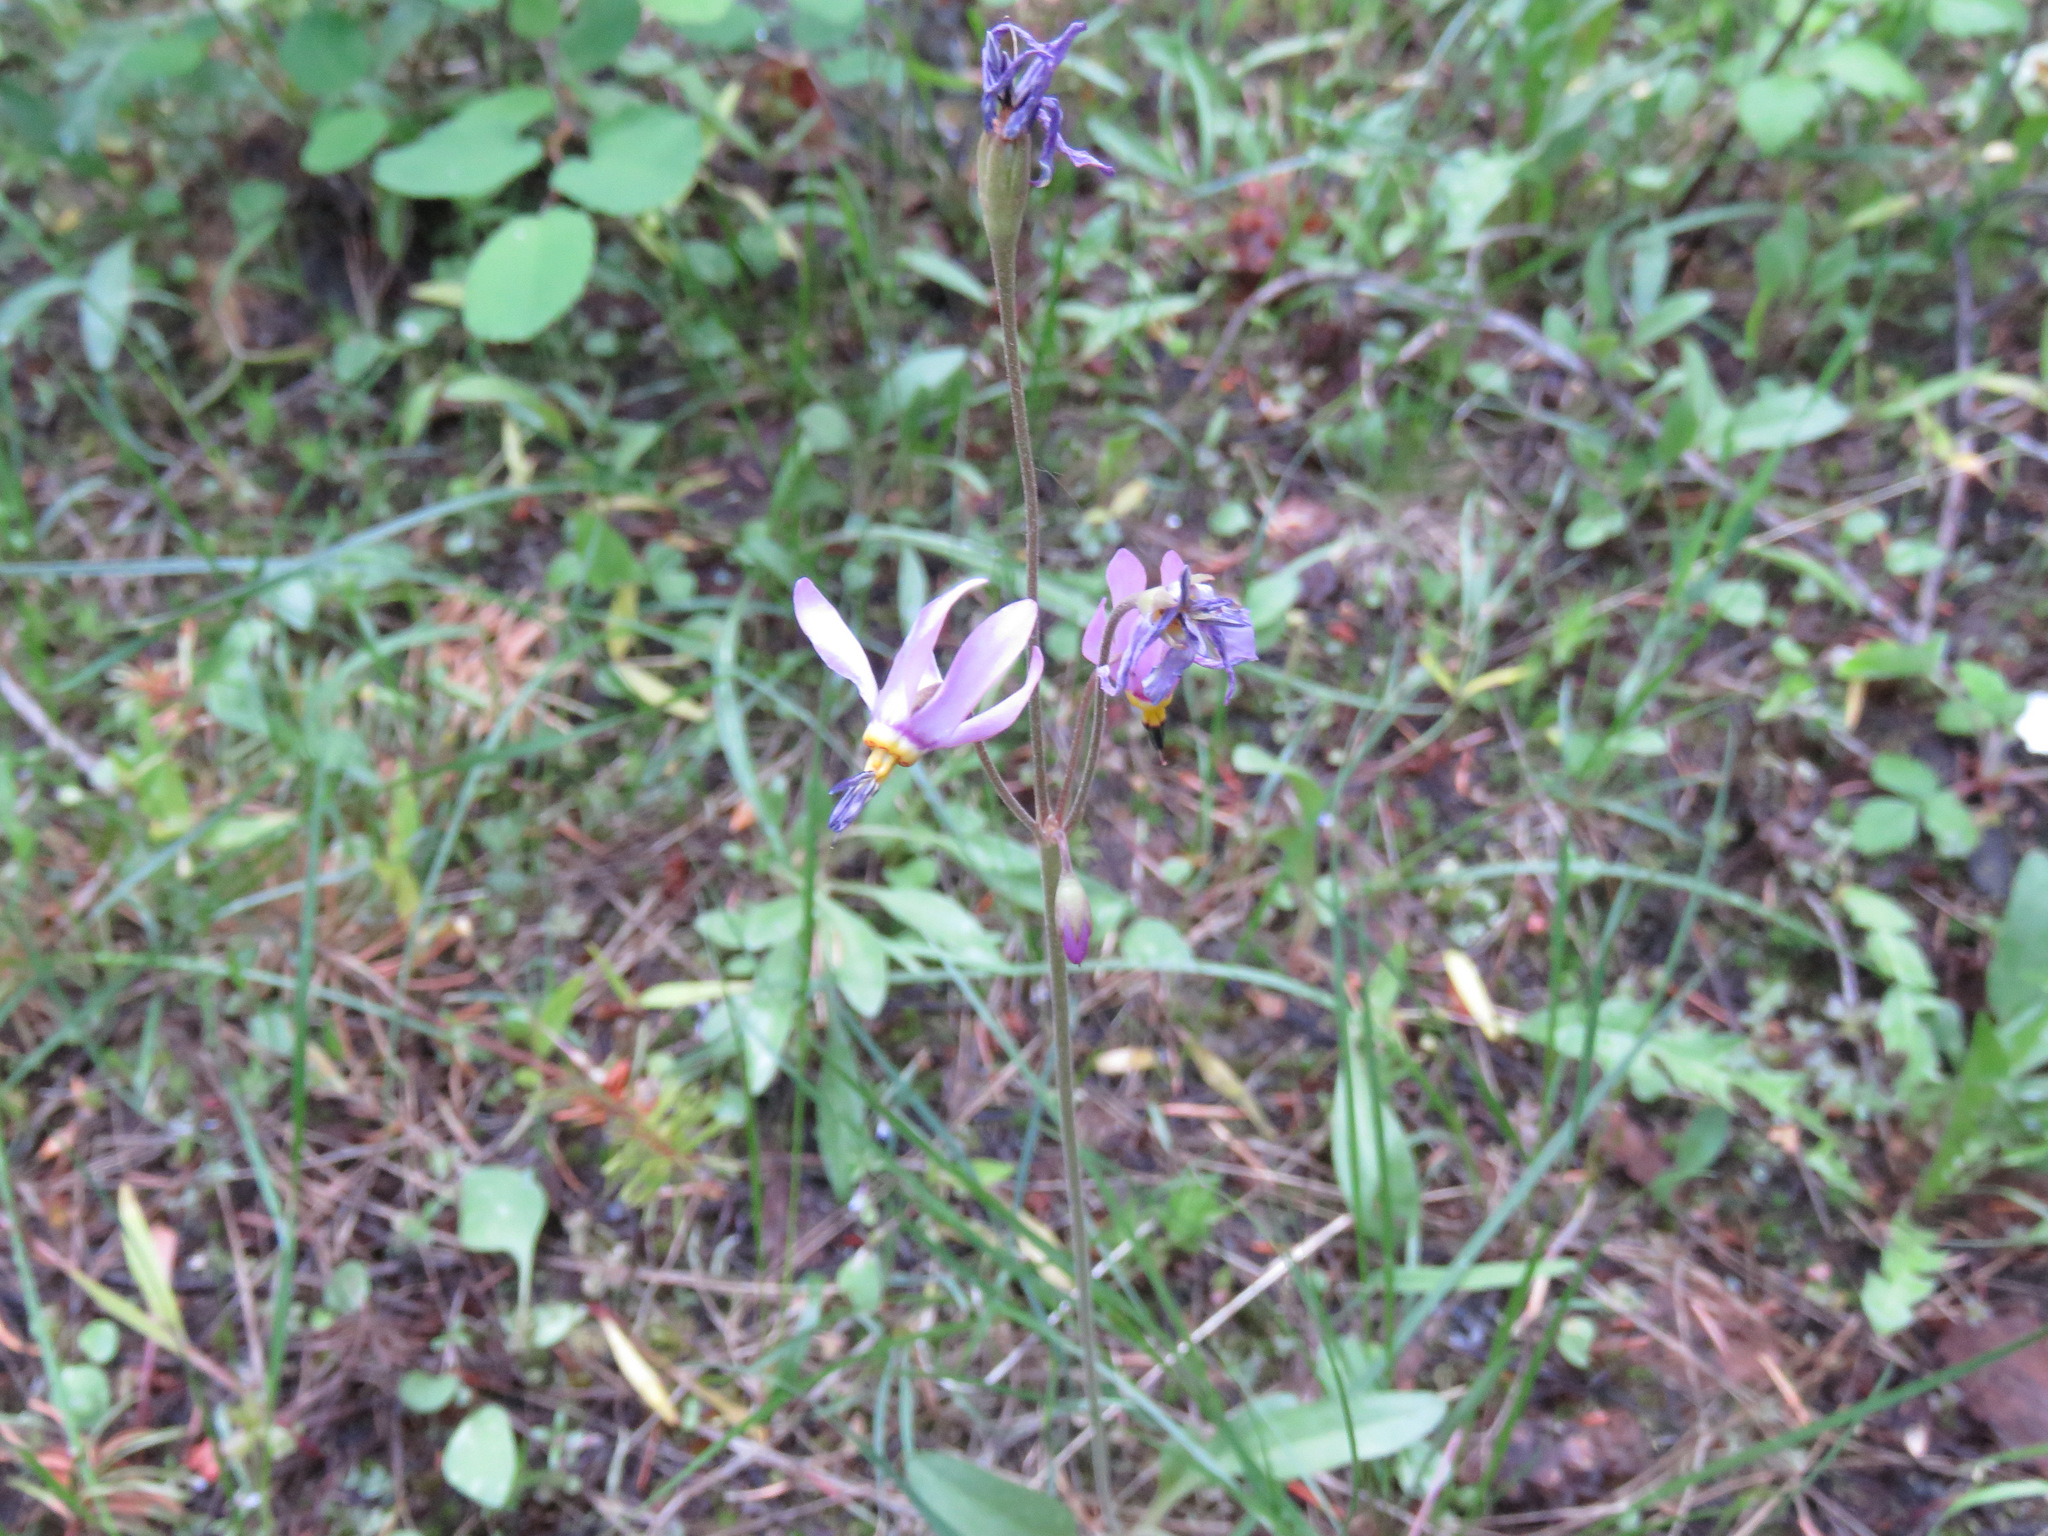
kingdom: Plantae
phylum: Tracheophyta
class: Magnoliopsida
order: Ericales
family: Primulaceae
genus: Dodecatheon
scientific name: Dodecatheon pulchellum
